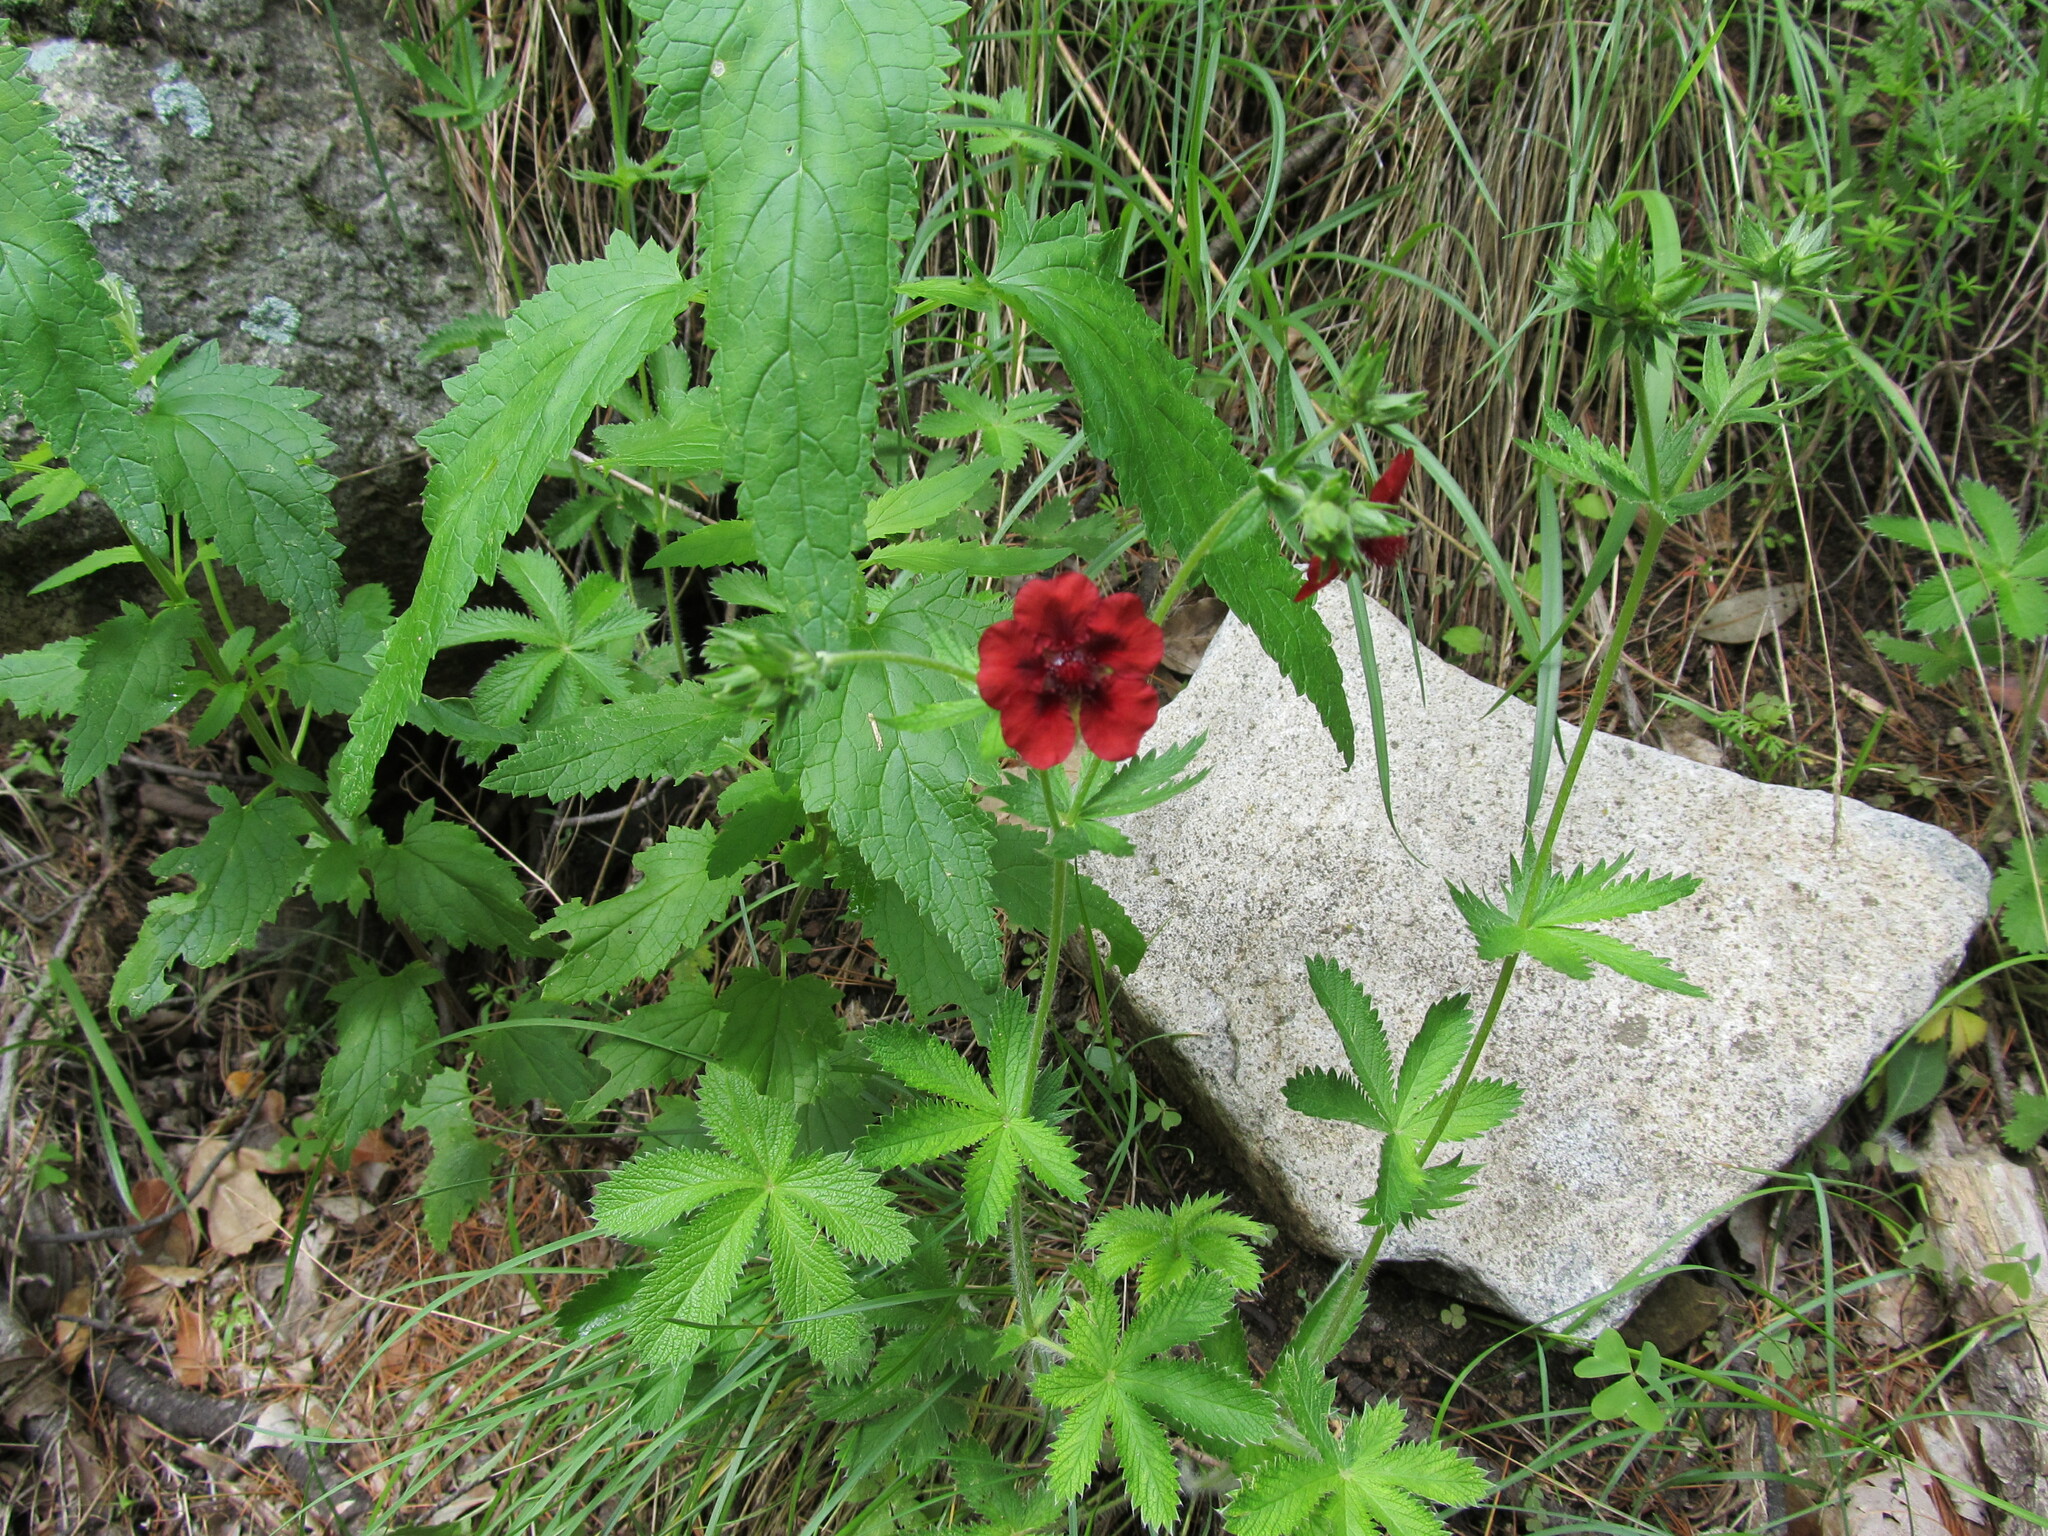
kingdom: Plantae
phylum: Tracheophyta
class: Magnoliopsida
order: Rosales
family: Rosaceae
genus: Potentilla
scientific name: Potentilla thurberi
